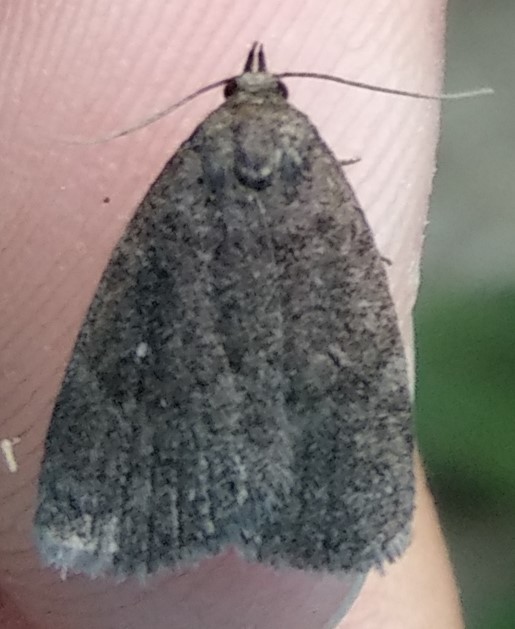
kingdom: Animalia
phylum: Arthropoda
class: Insecta
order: Lepidoptera
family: Erebidae
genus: Idia
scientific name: Idia rotundalis
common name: Rotund idia moth
